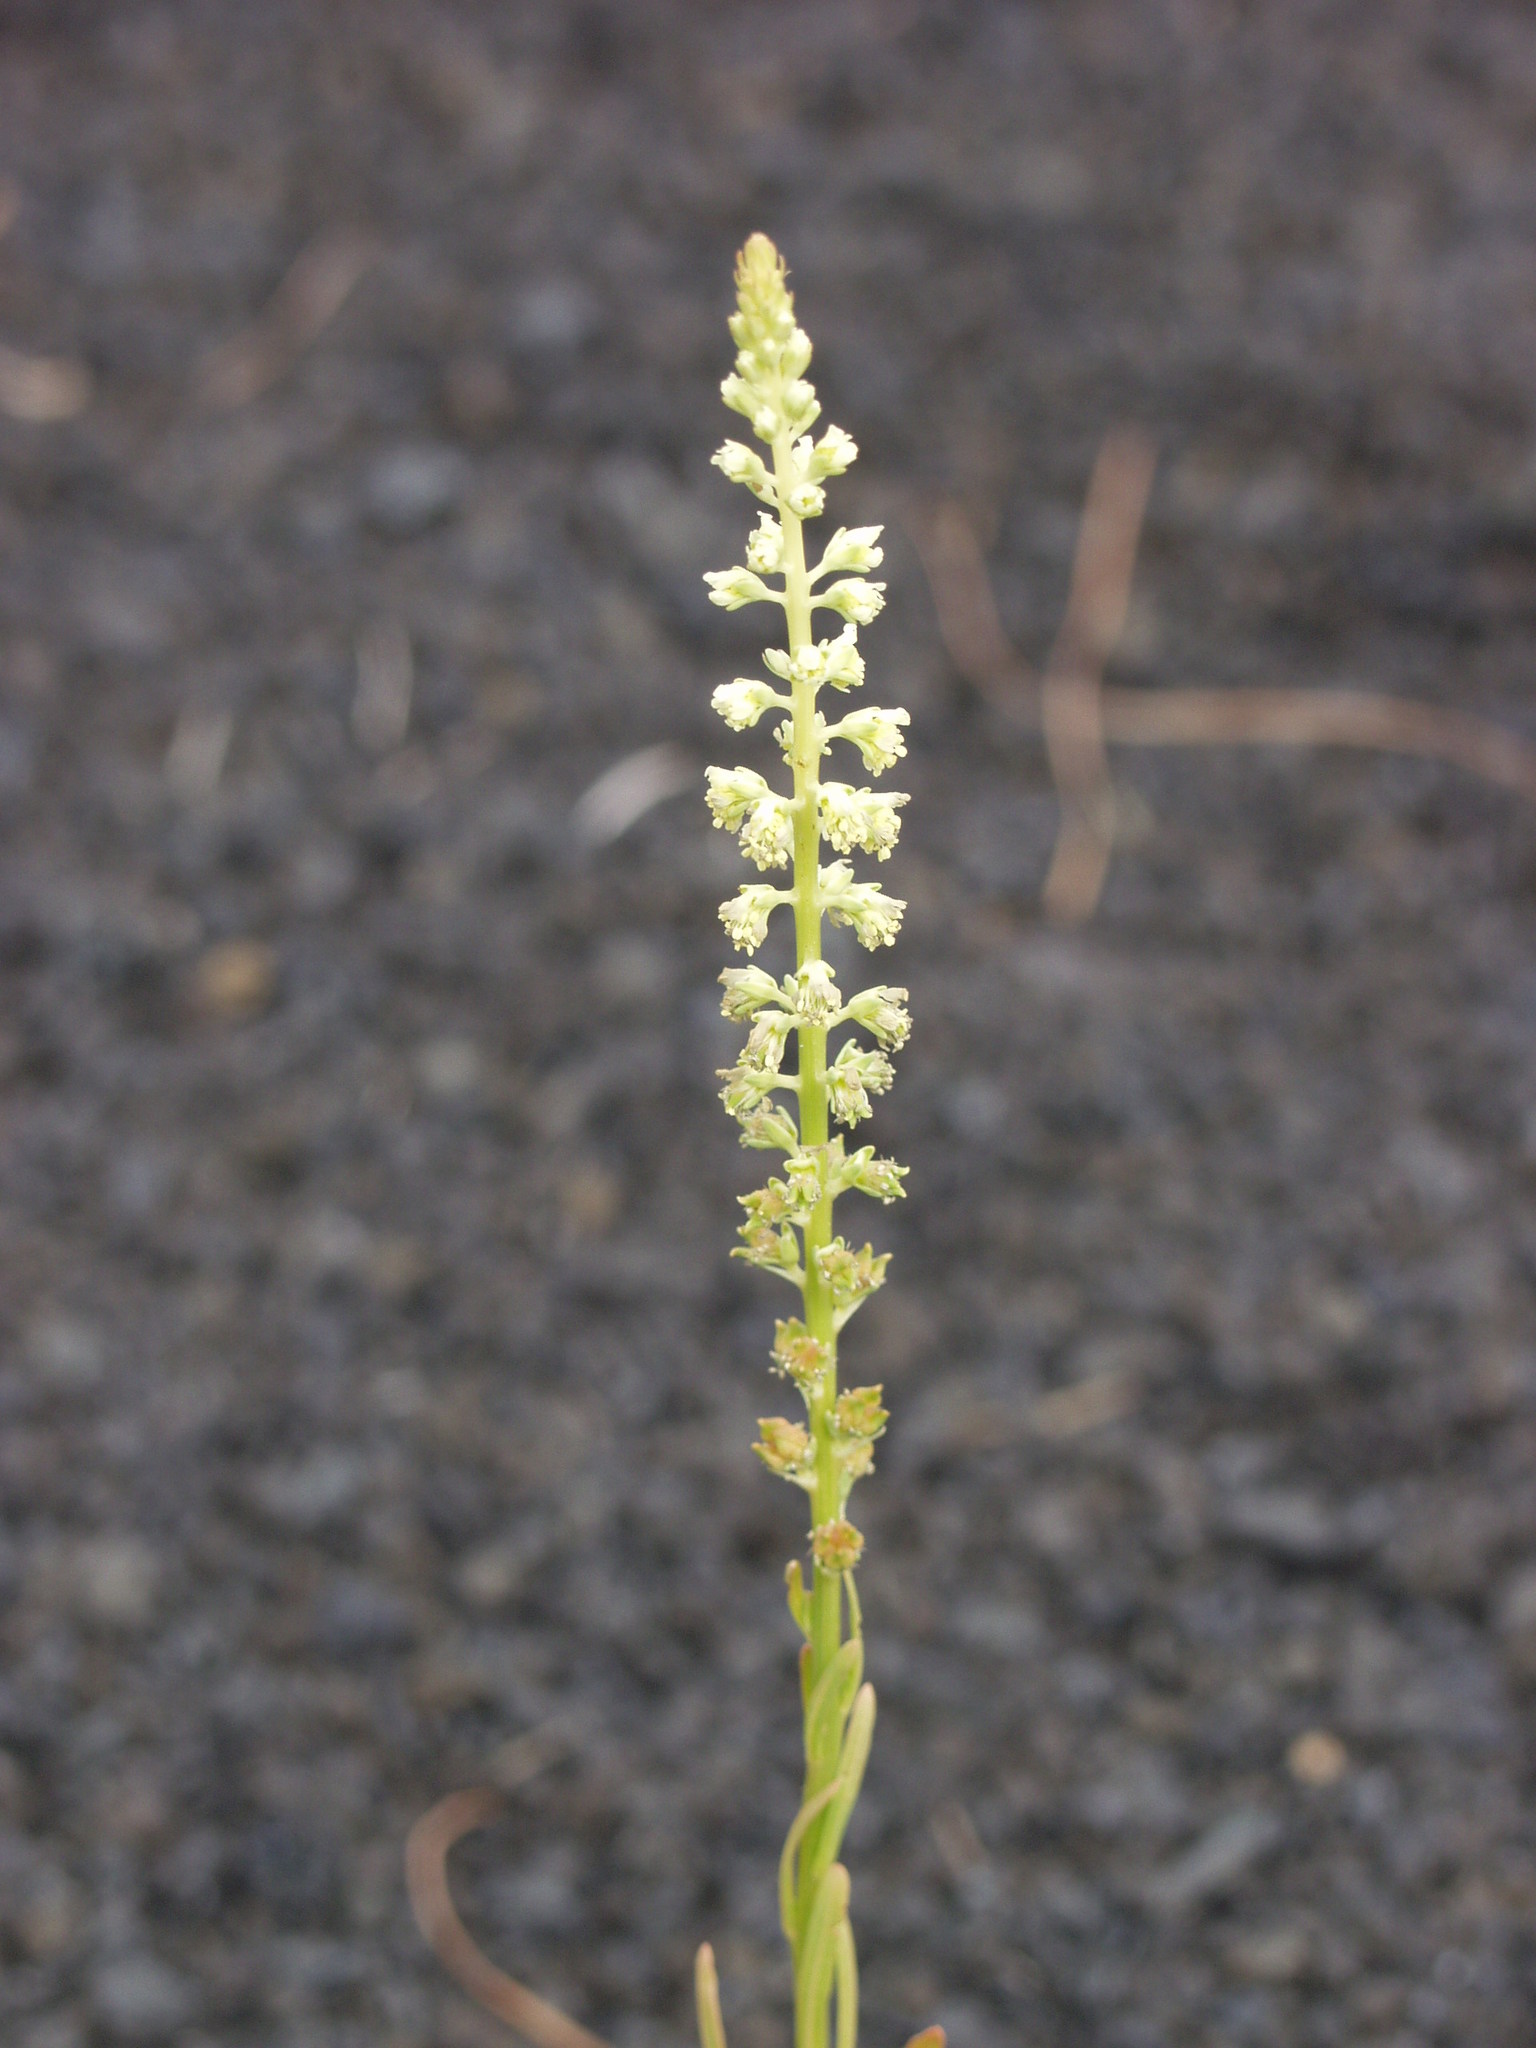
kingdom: Plantae
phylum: Tracheophyta
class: Magnoliopsida
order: Brassicales
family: Resedaceae
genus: Reseda
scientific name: Reseda luteola
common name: Weld
